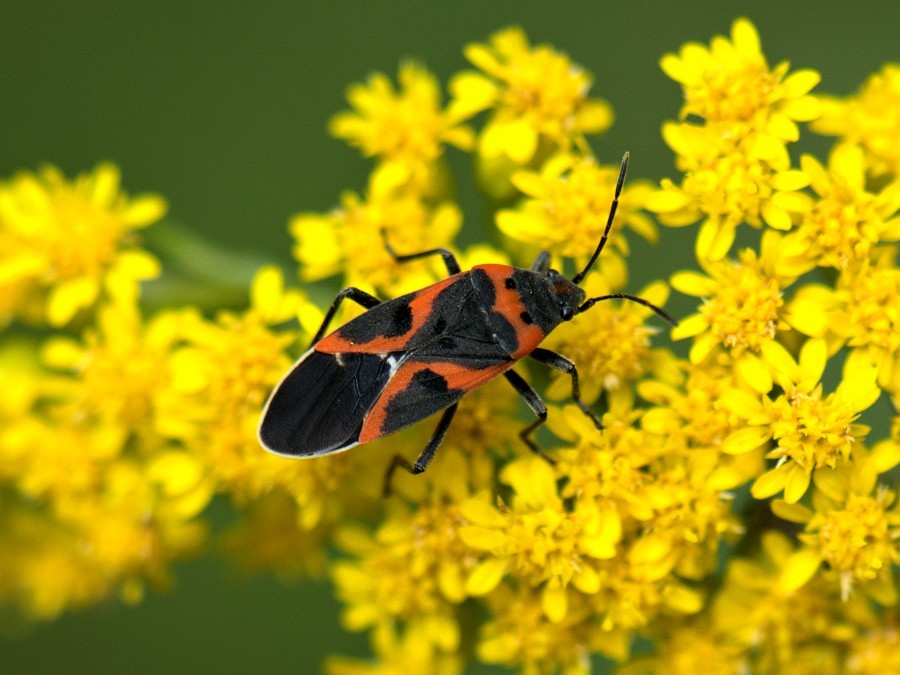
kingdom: Animalia
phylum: Arthropoda
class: Insecta
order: Hemiptera
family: Lygaeidae
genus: Lygaeus
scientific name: Lygaeus kalmii
